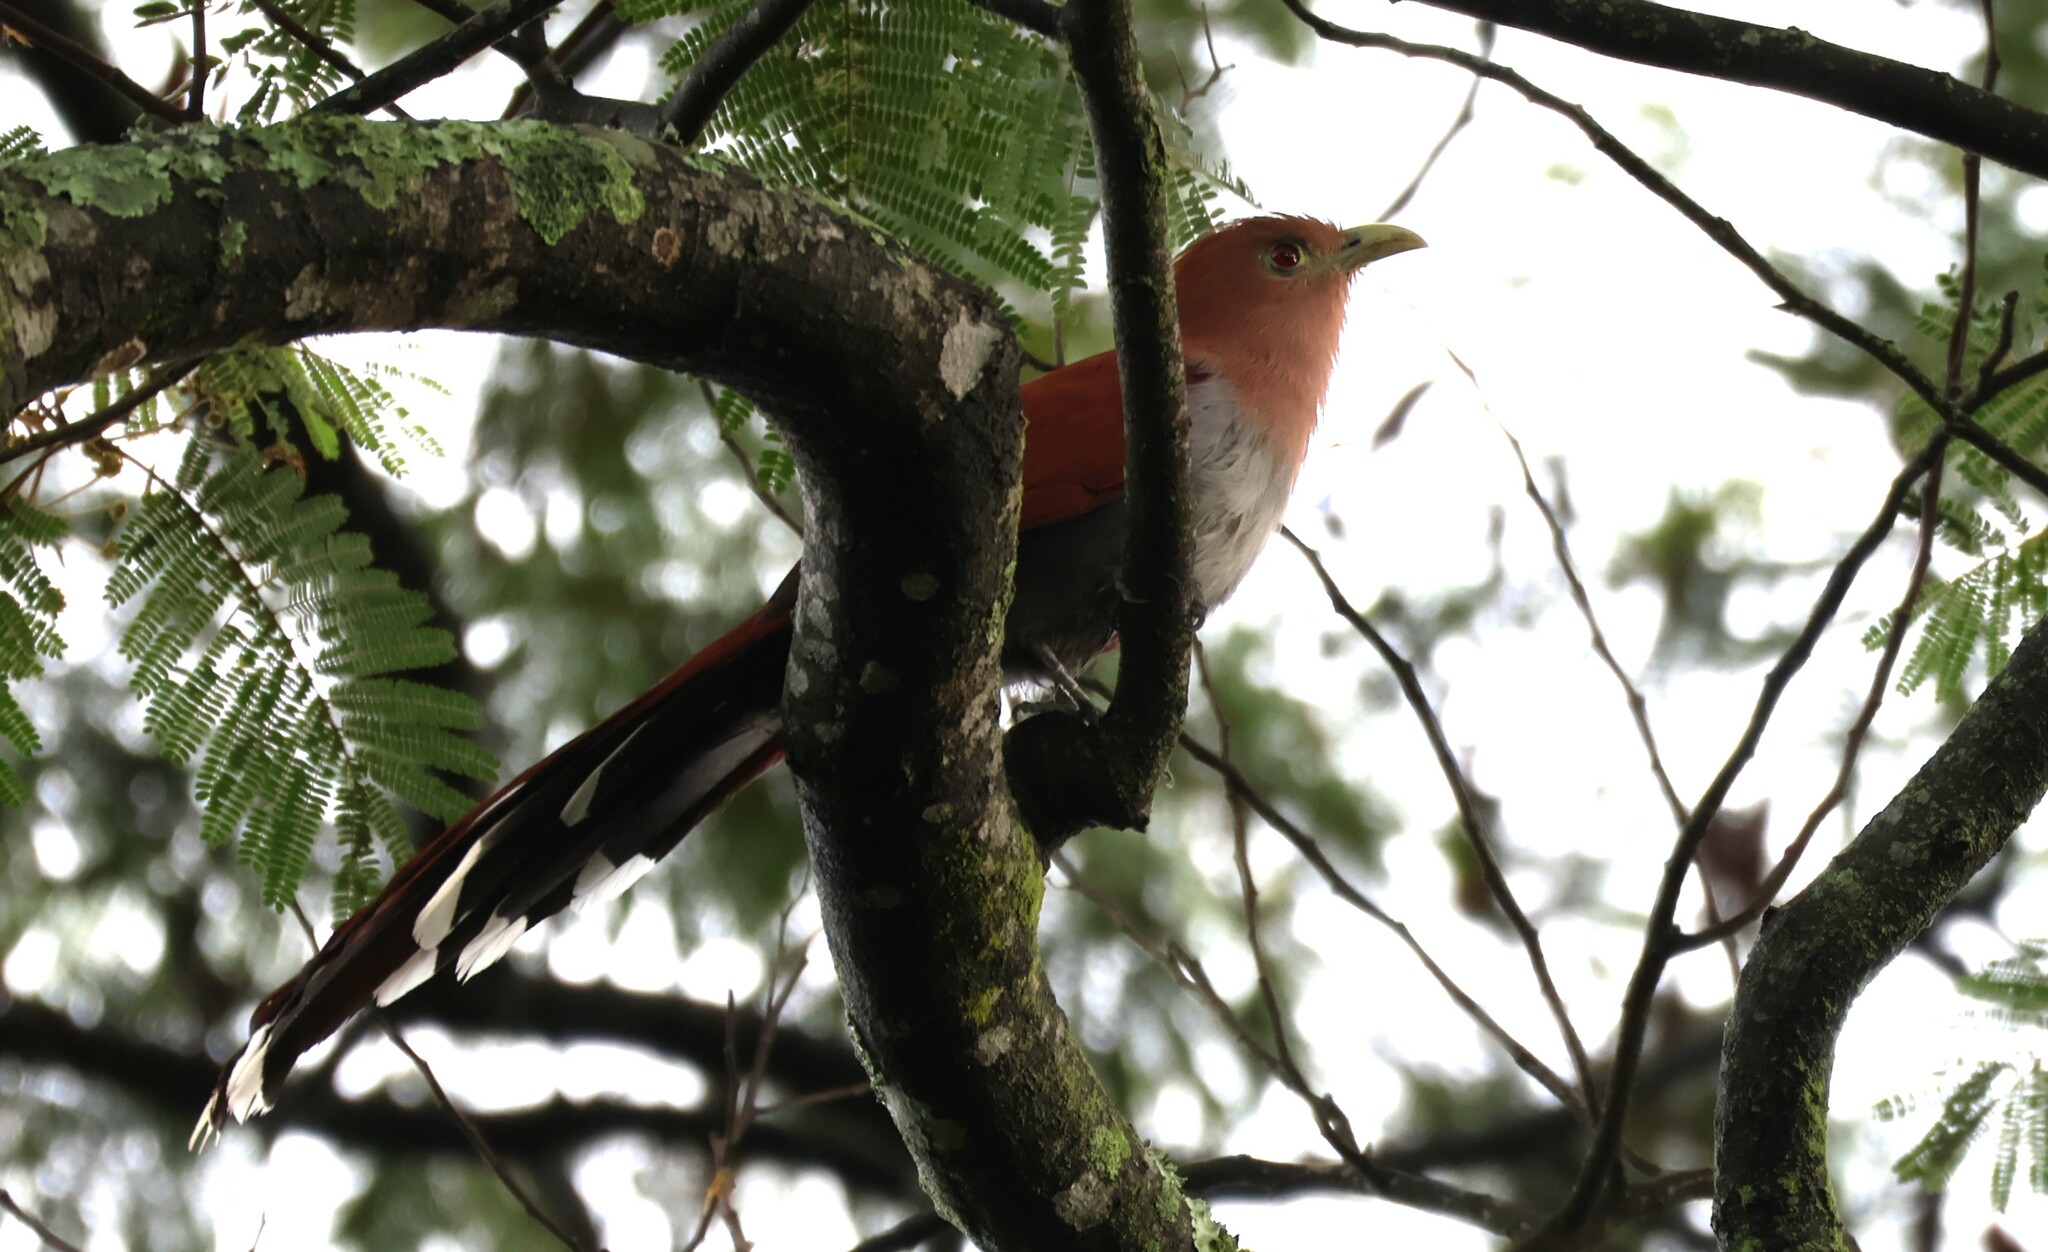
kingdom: Animalia
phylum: Chordata
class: Aves
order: Cuculiformes
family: Cuculidae
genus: Piaya
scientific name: Piaya cayana
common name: Squirrel cuckoo
